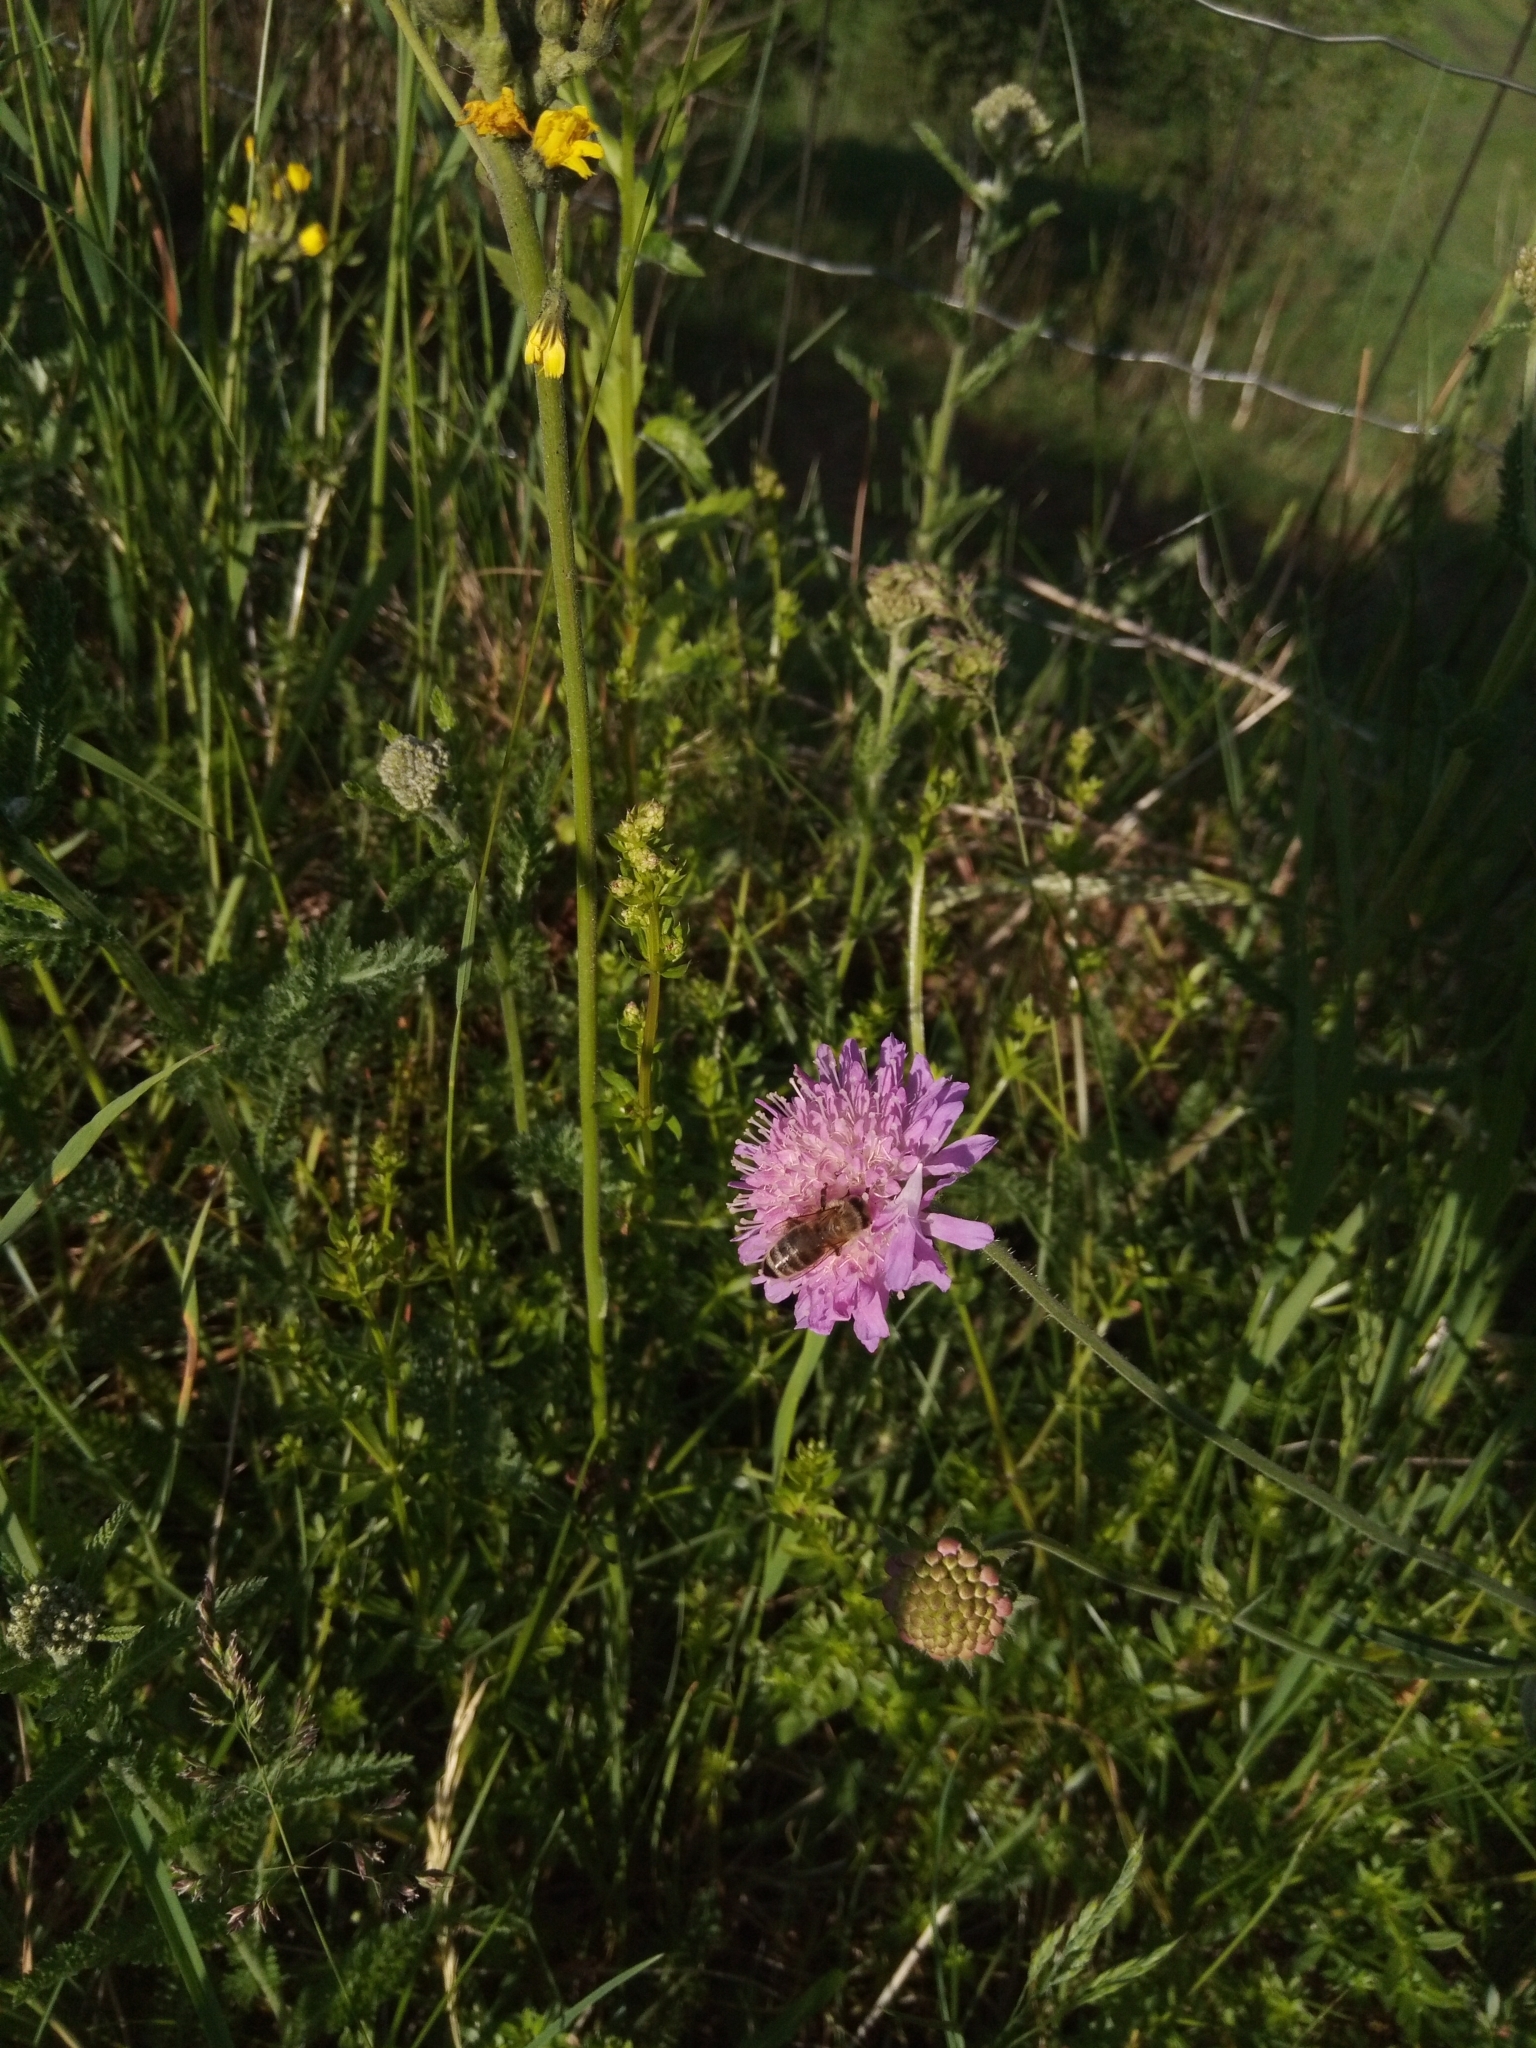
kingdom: Animalia
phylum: Arthropoda
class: Insecta
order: Hymenoptera
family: Apidae
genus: Apis
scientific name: Apis mellifera
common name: Honey bee
